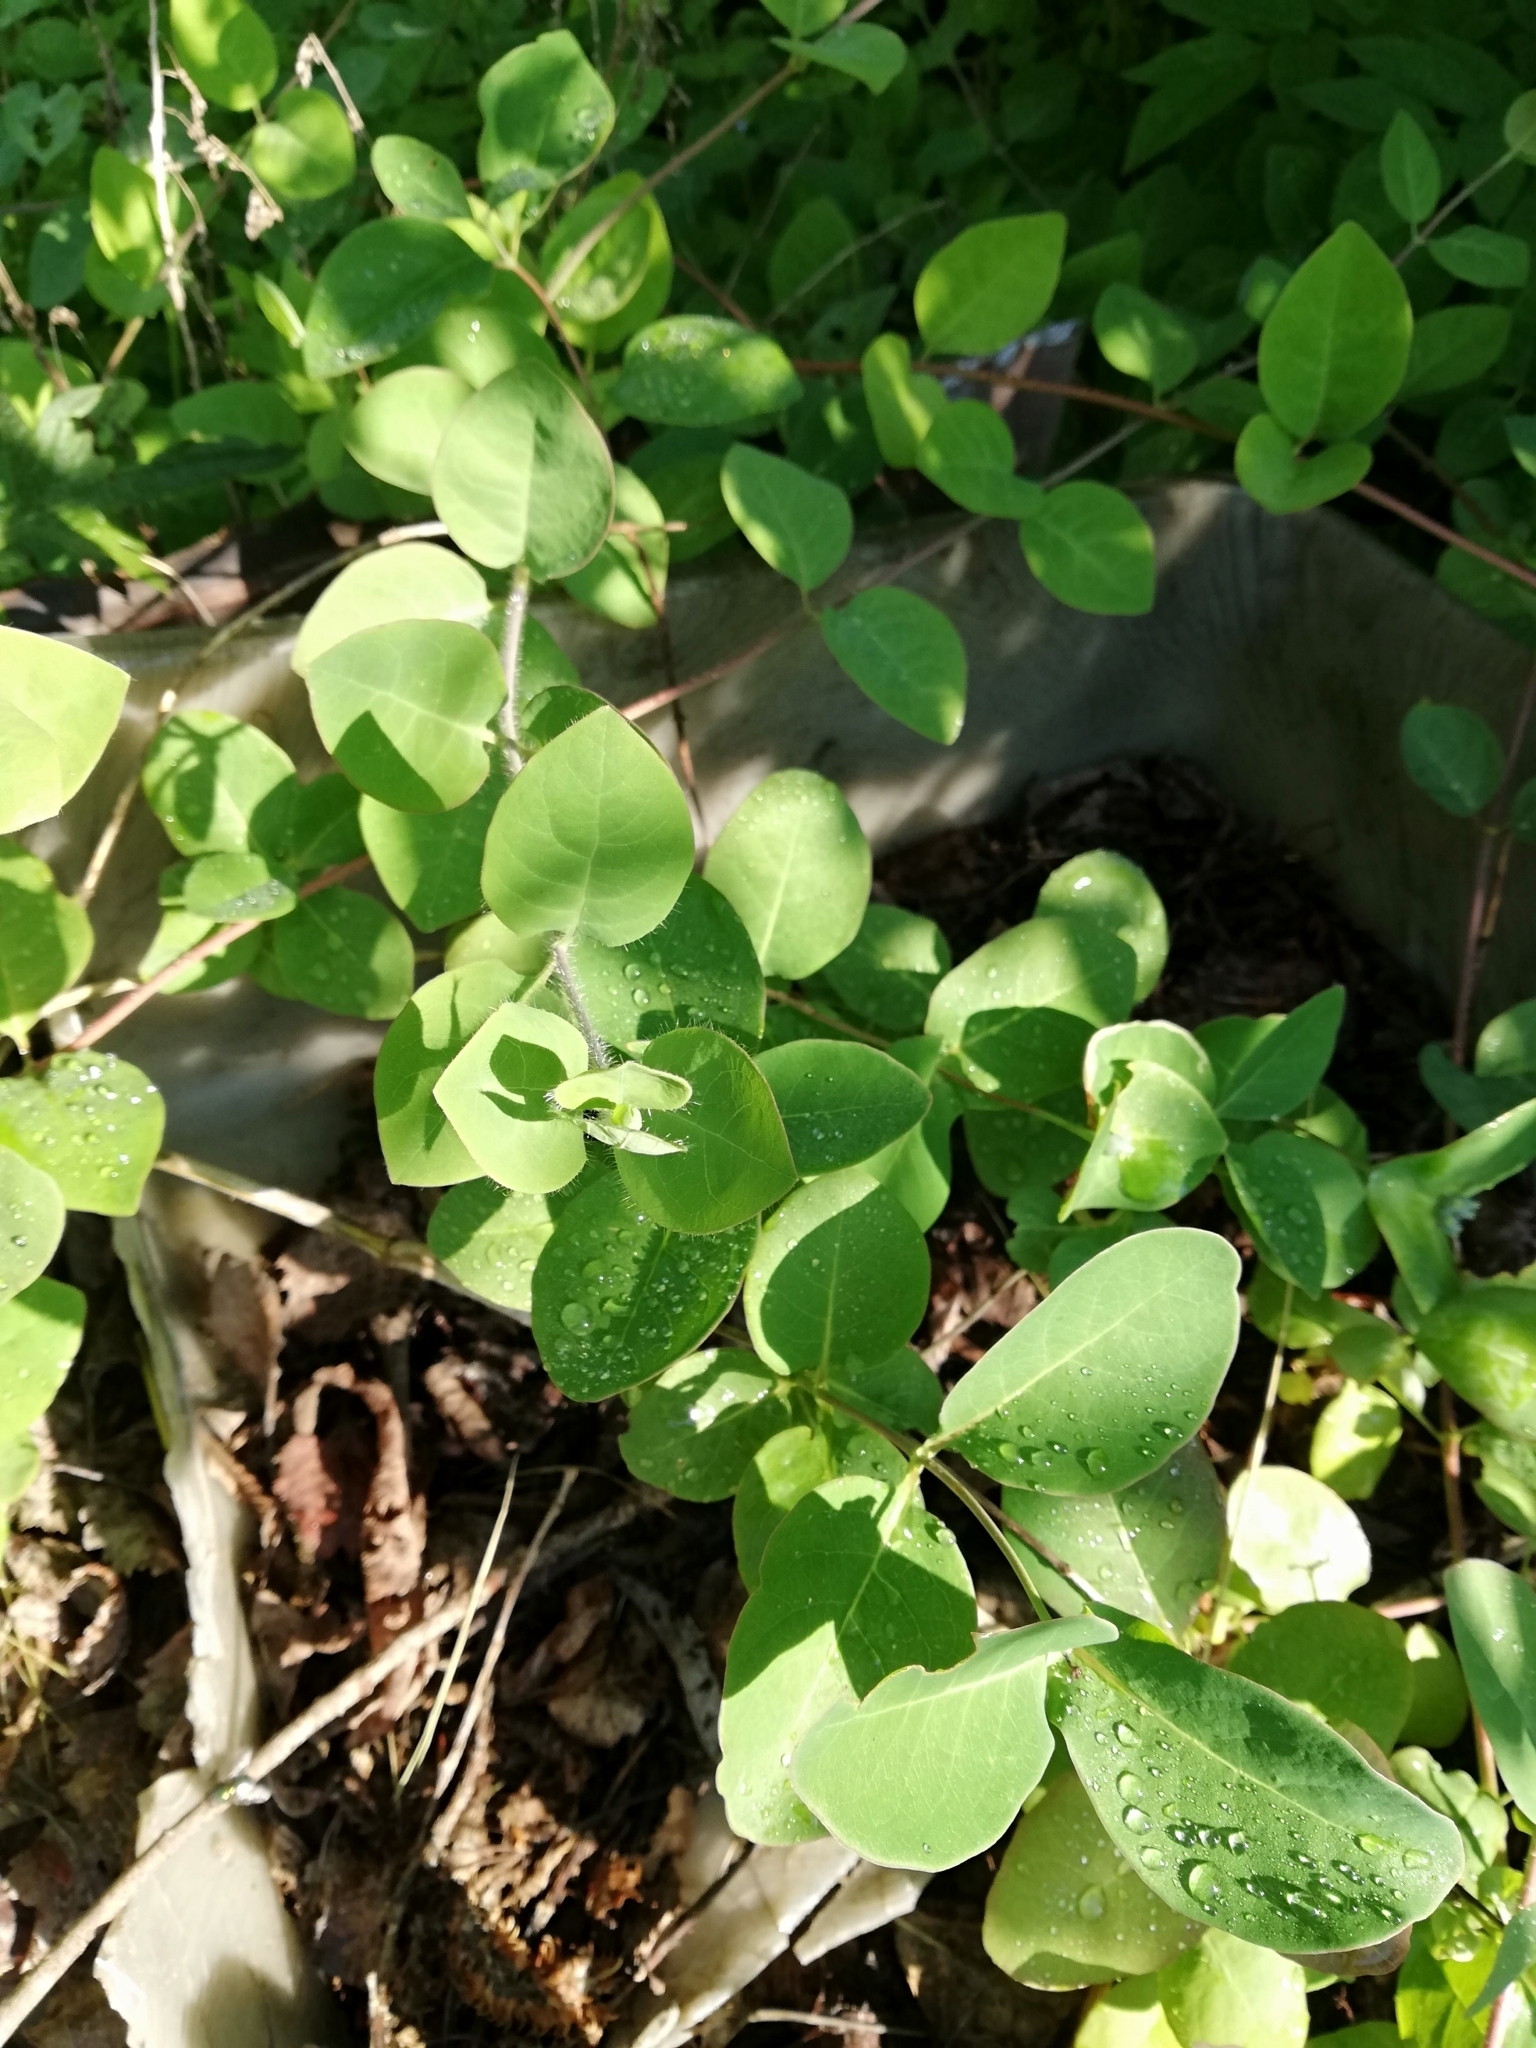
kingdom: Plantae
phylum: Tracheophyta
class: Magnoliopsida
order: Dipsacales
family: Caprifoliaceae
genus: Lonicera
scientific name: Lonicera caprifolium
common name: Perfoliate honeysuckle
